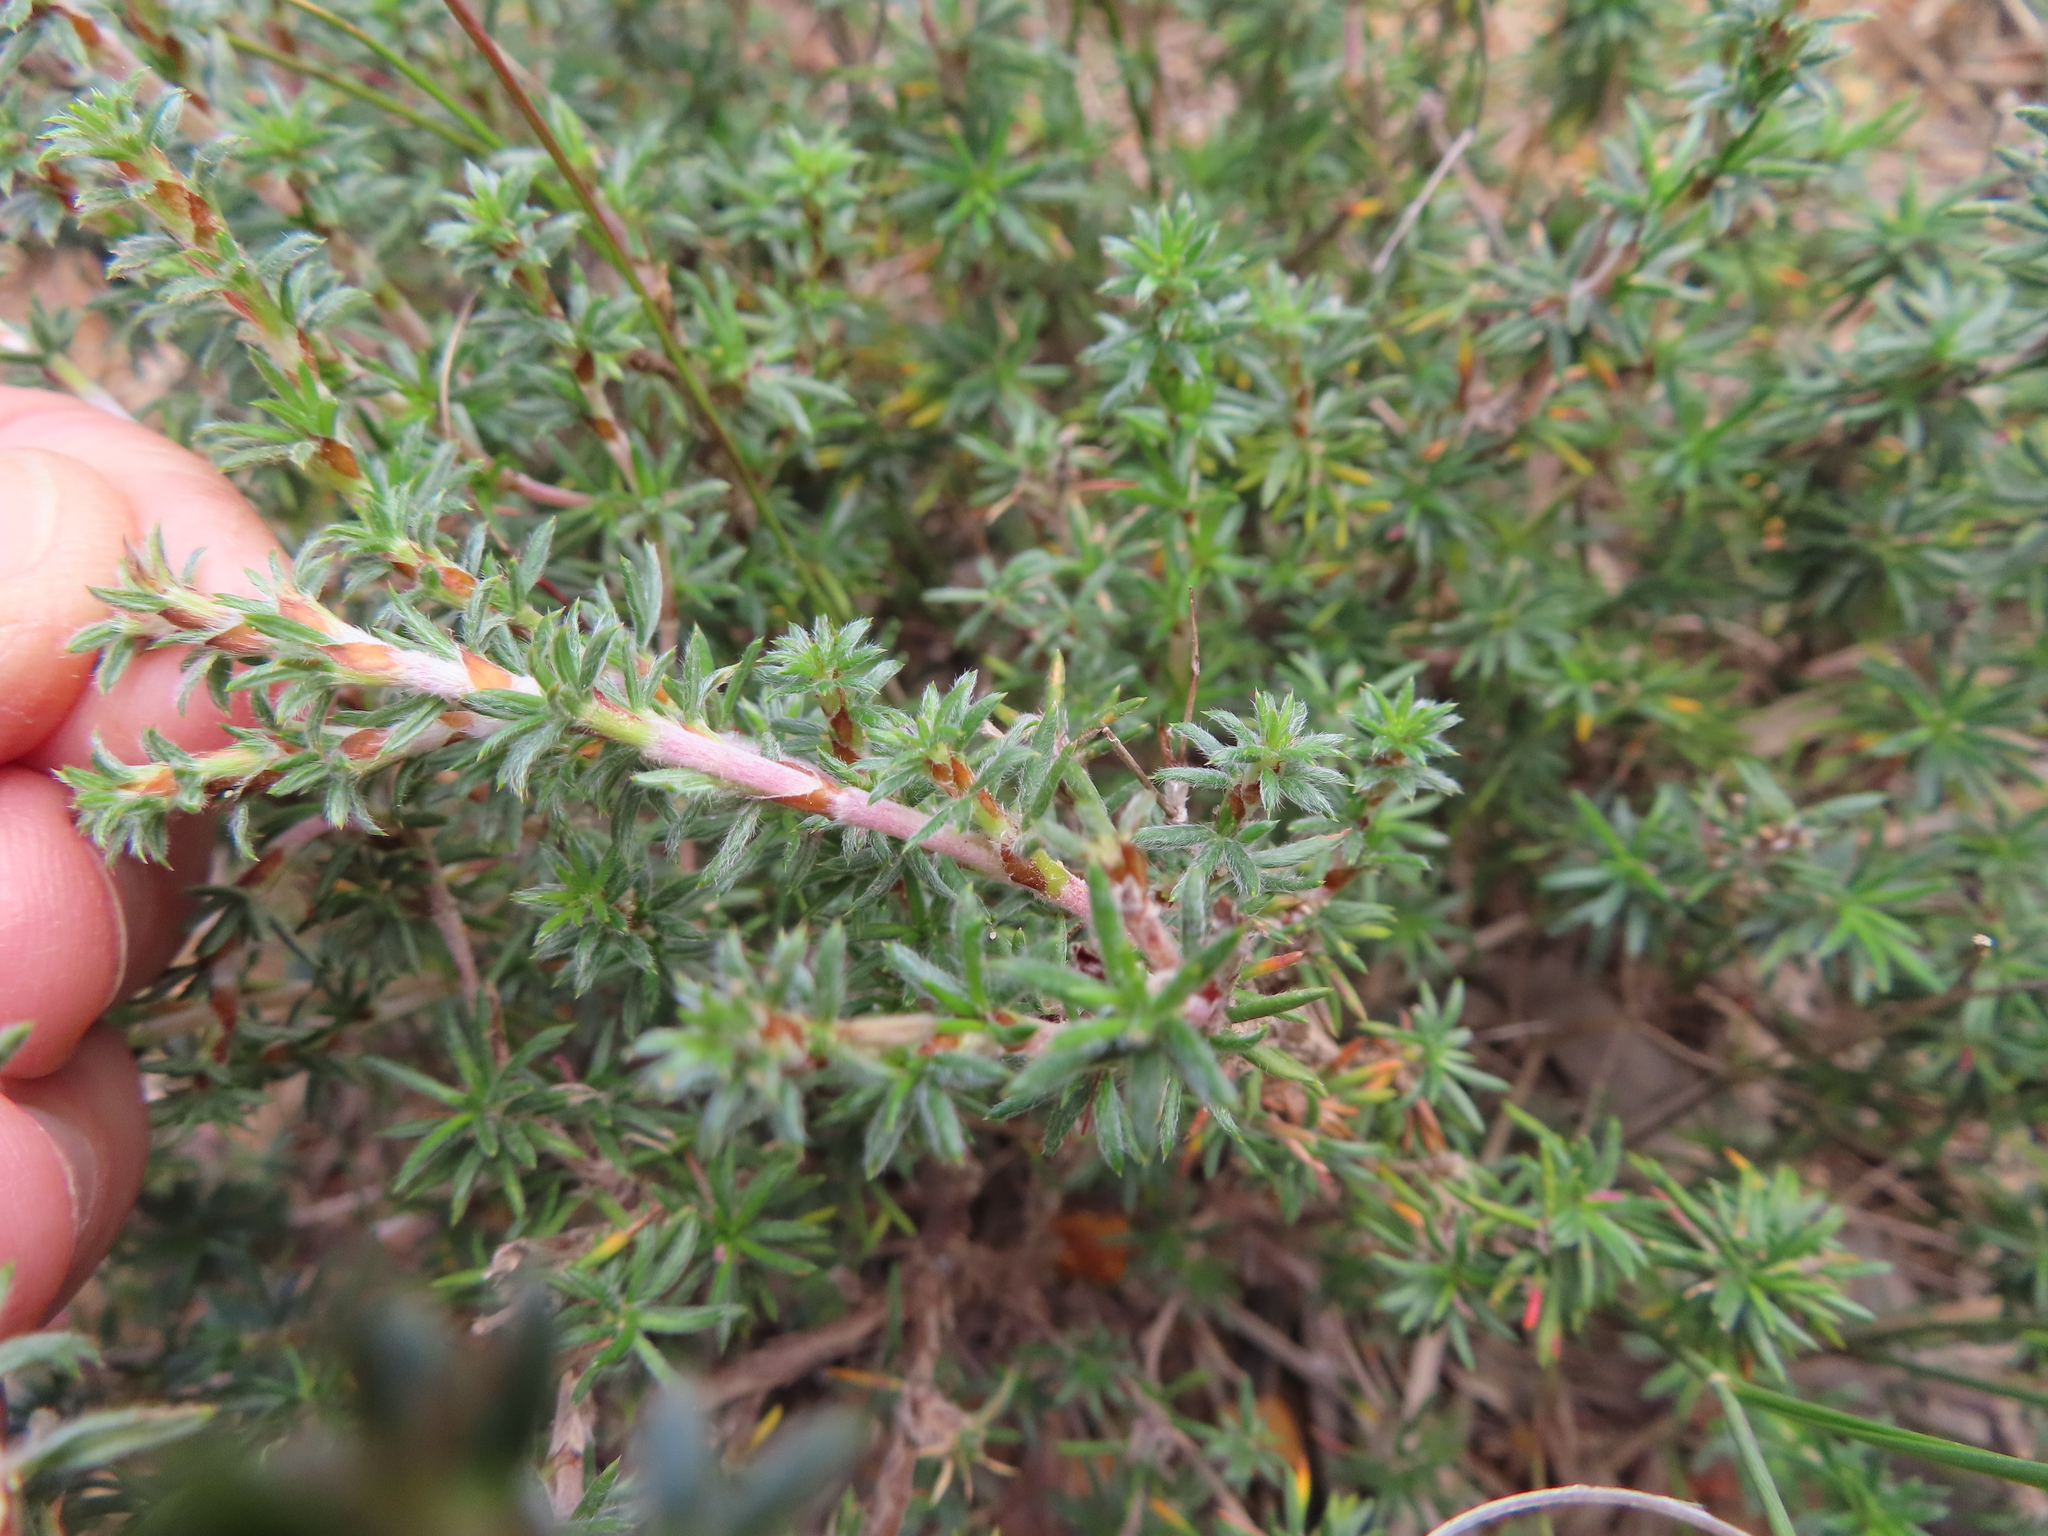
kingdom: Plantae
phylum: Tracheophyta
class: Magnoliopsida
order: Rosales
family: Rosaceae
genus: Cliffortia
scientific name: Cliffortia stricta
